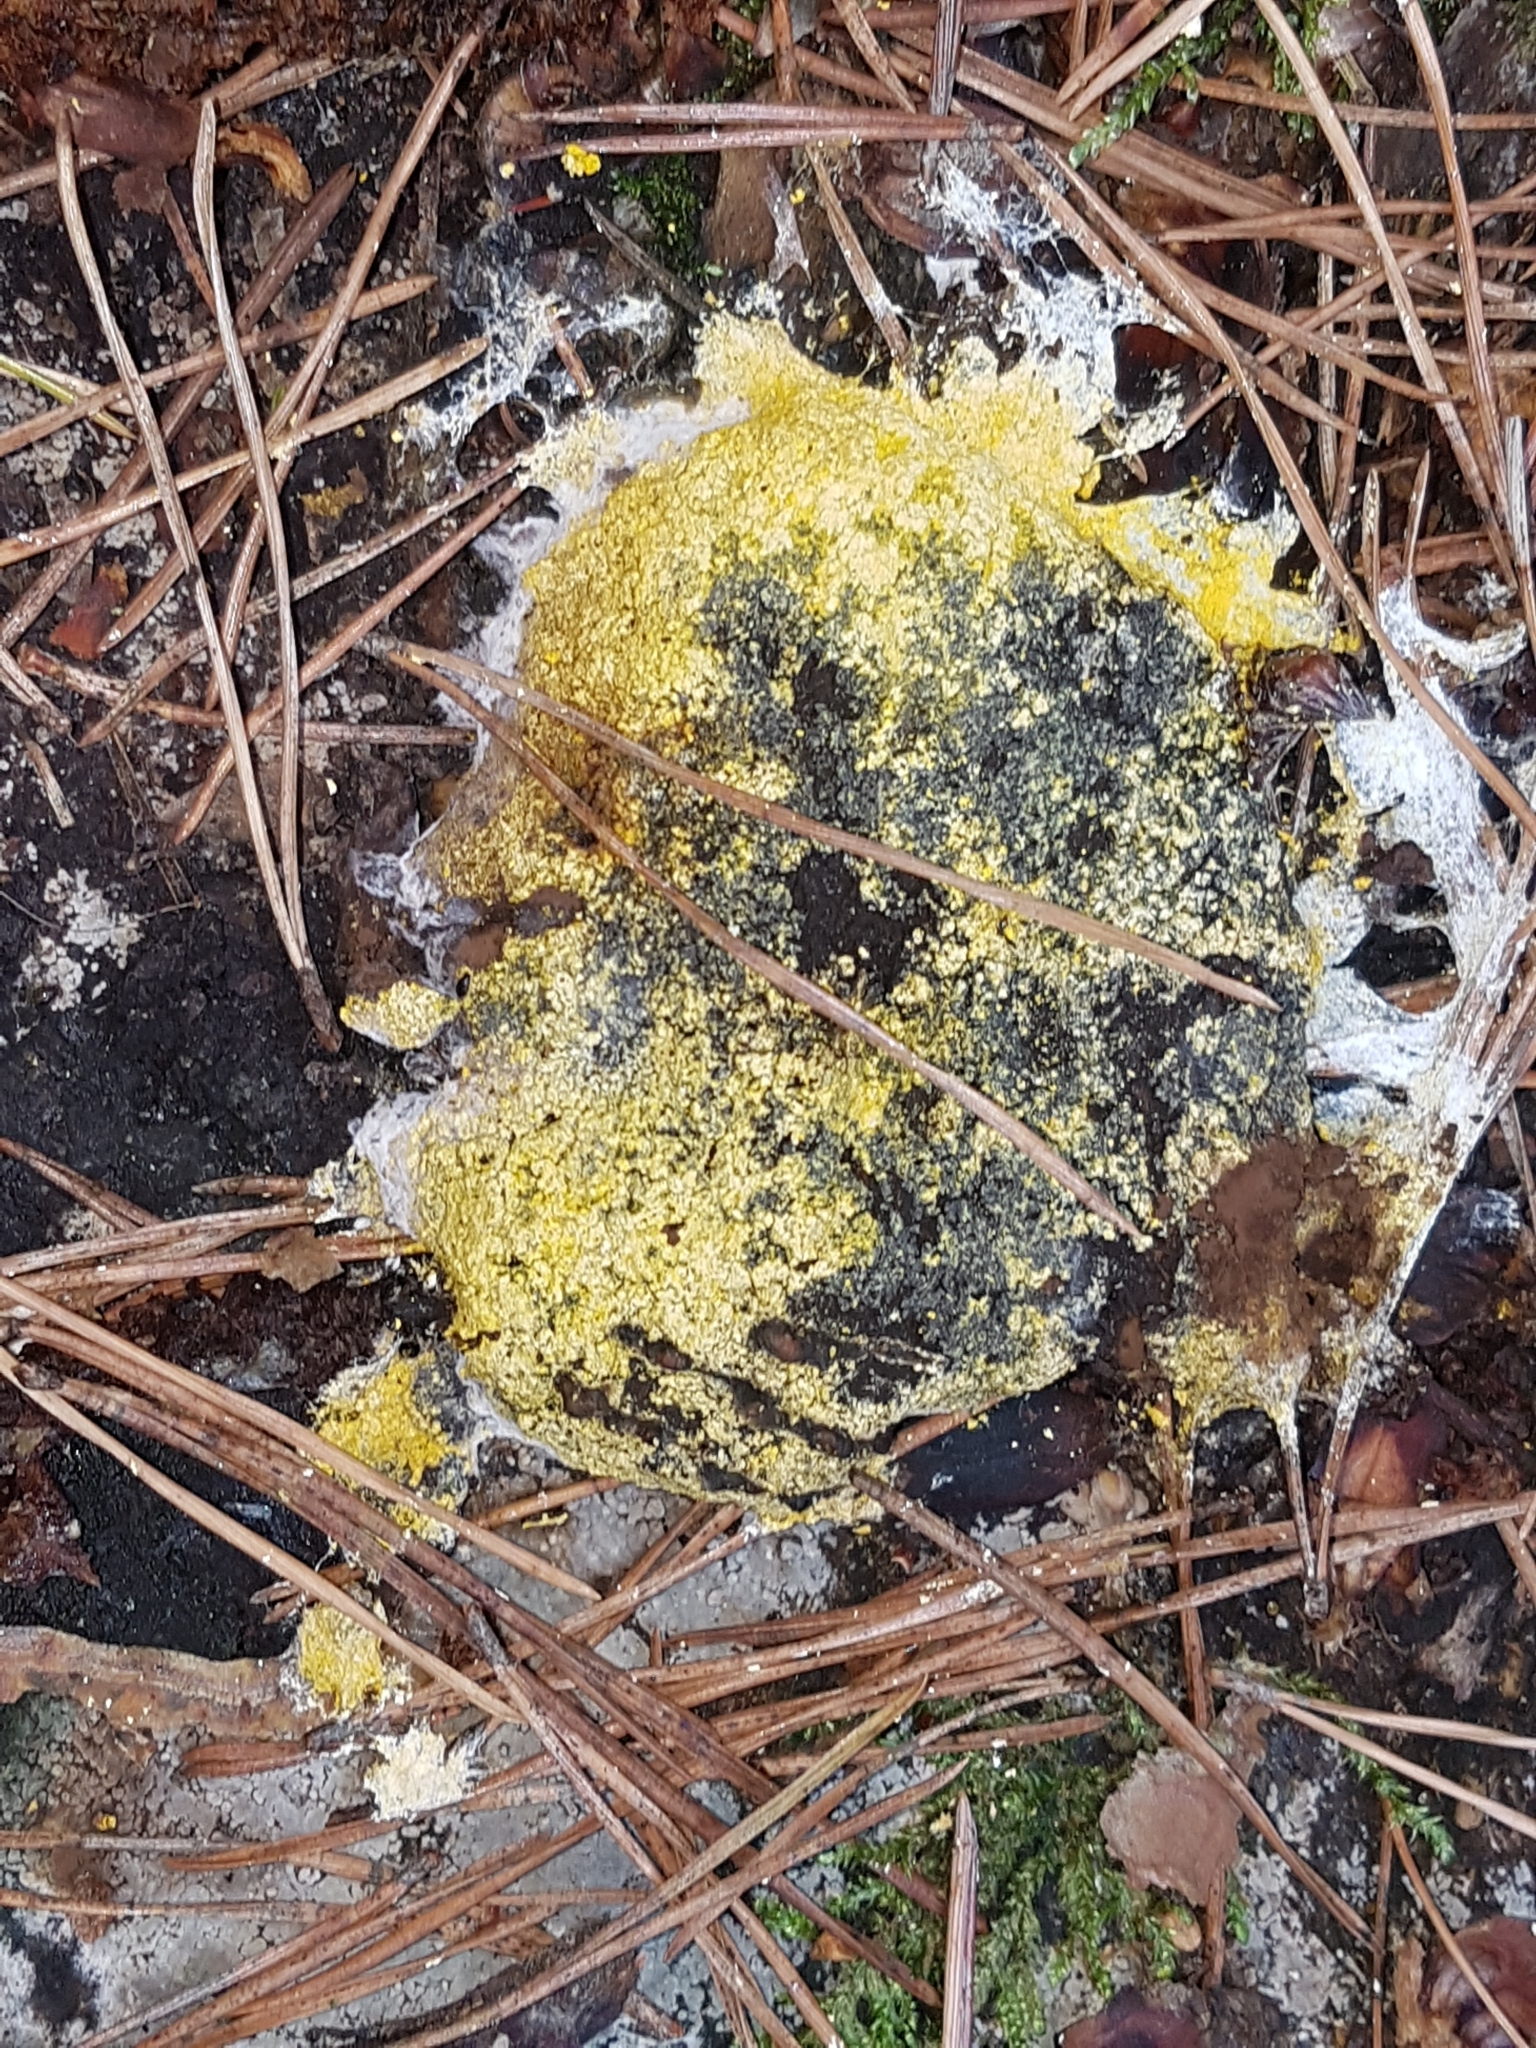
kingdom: Protozoa
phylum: Mycetozoa
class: Myxomycetes
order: Physarales
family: Physaraceae
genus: Fuligo
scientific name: Fuligo septica
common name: Dog vomit slime mold
